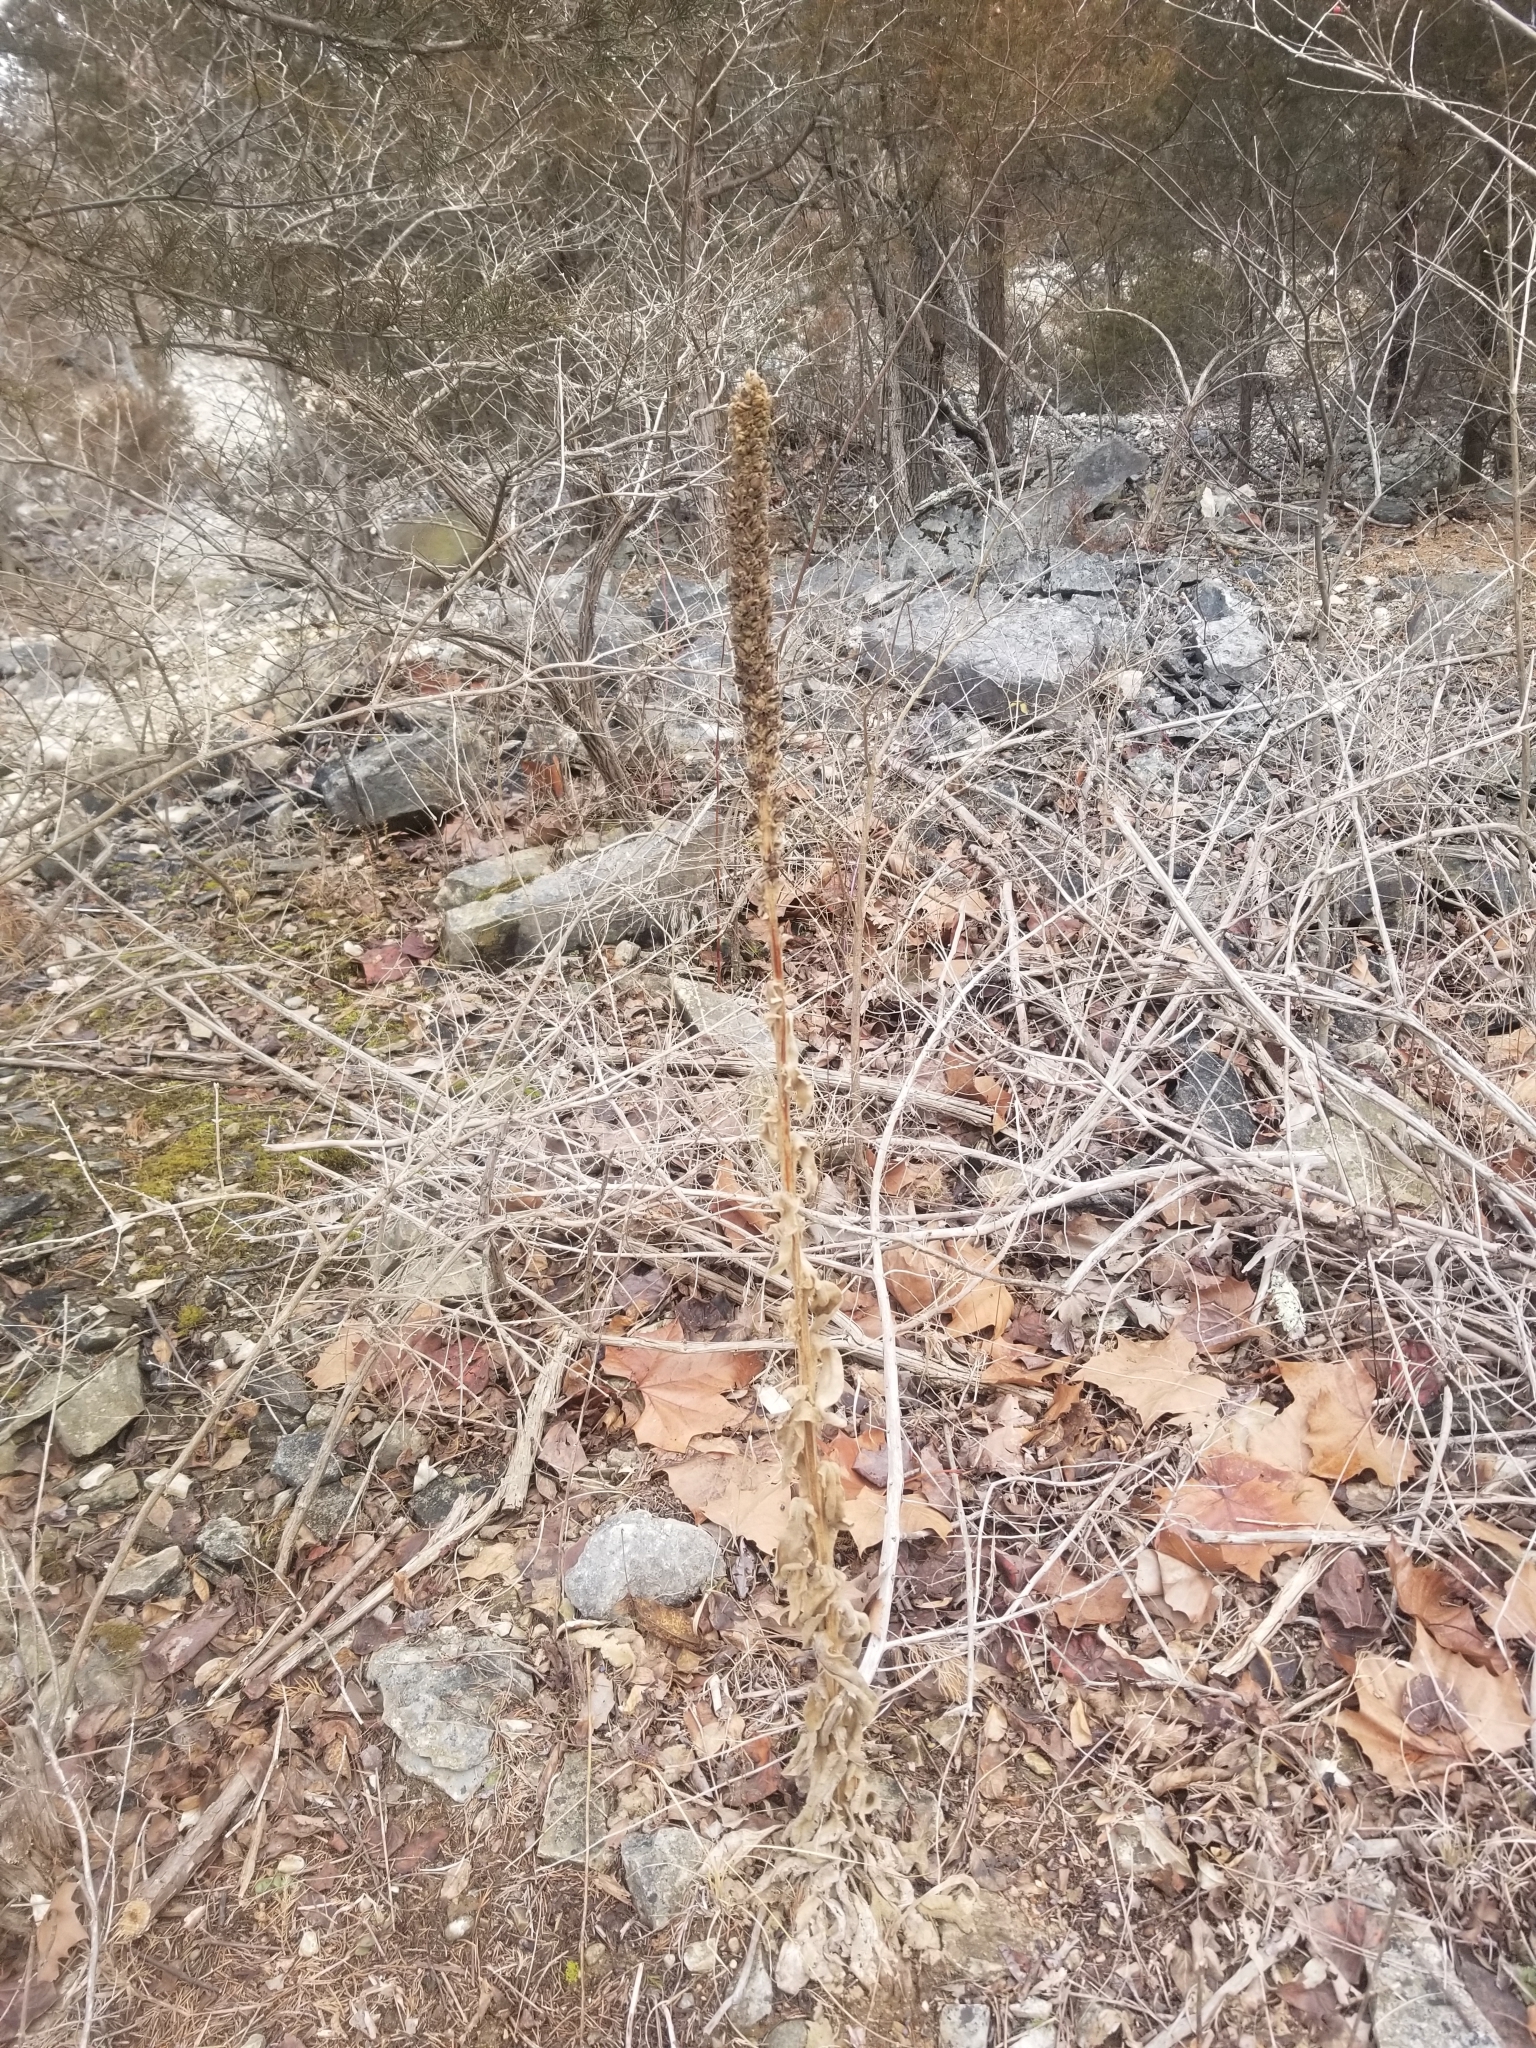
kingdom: Plantae
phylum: Tracheophyta
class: Magnoliopsida
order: Lamiales
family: Scrophulariaceae
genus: Verbascum
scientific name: Verbascum thapsus
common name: Common mullein
